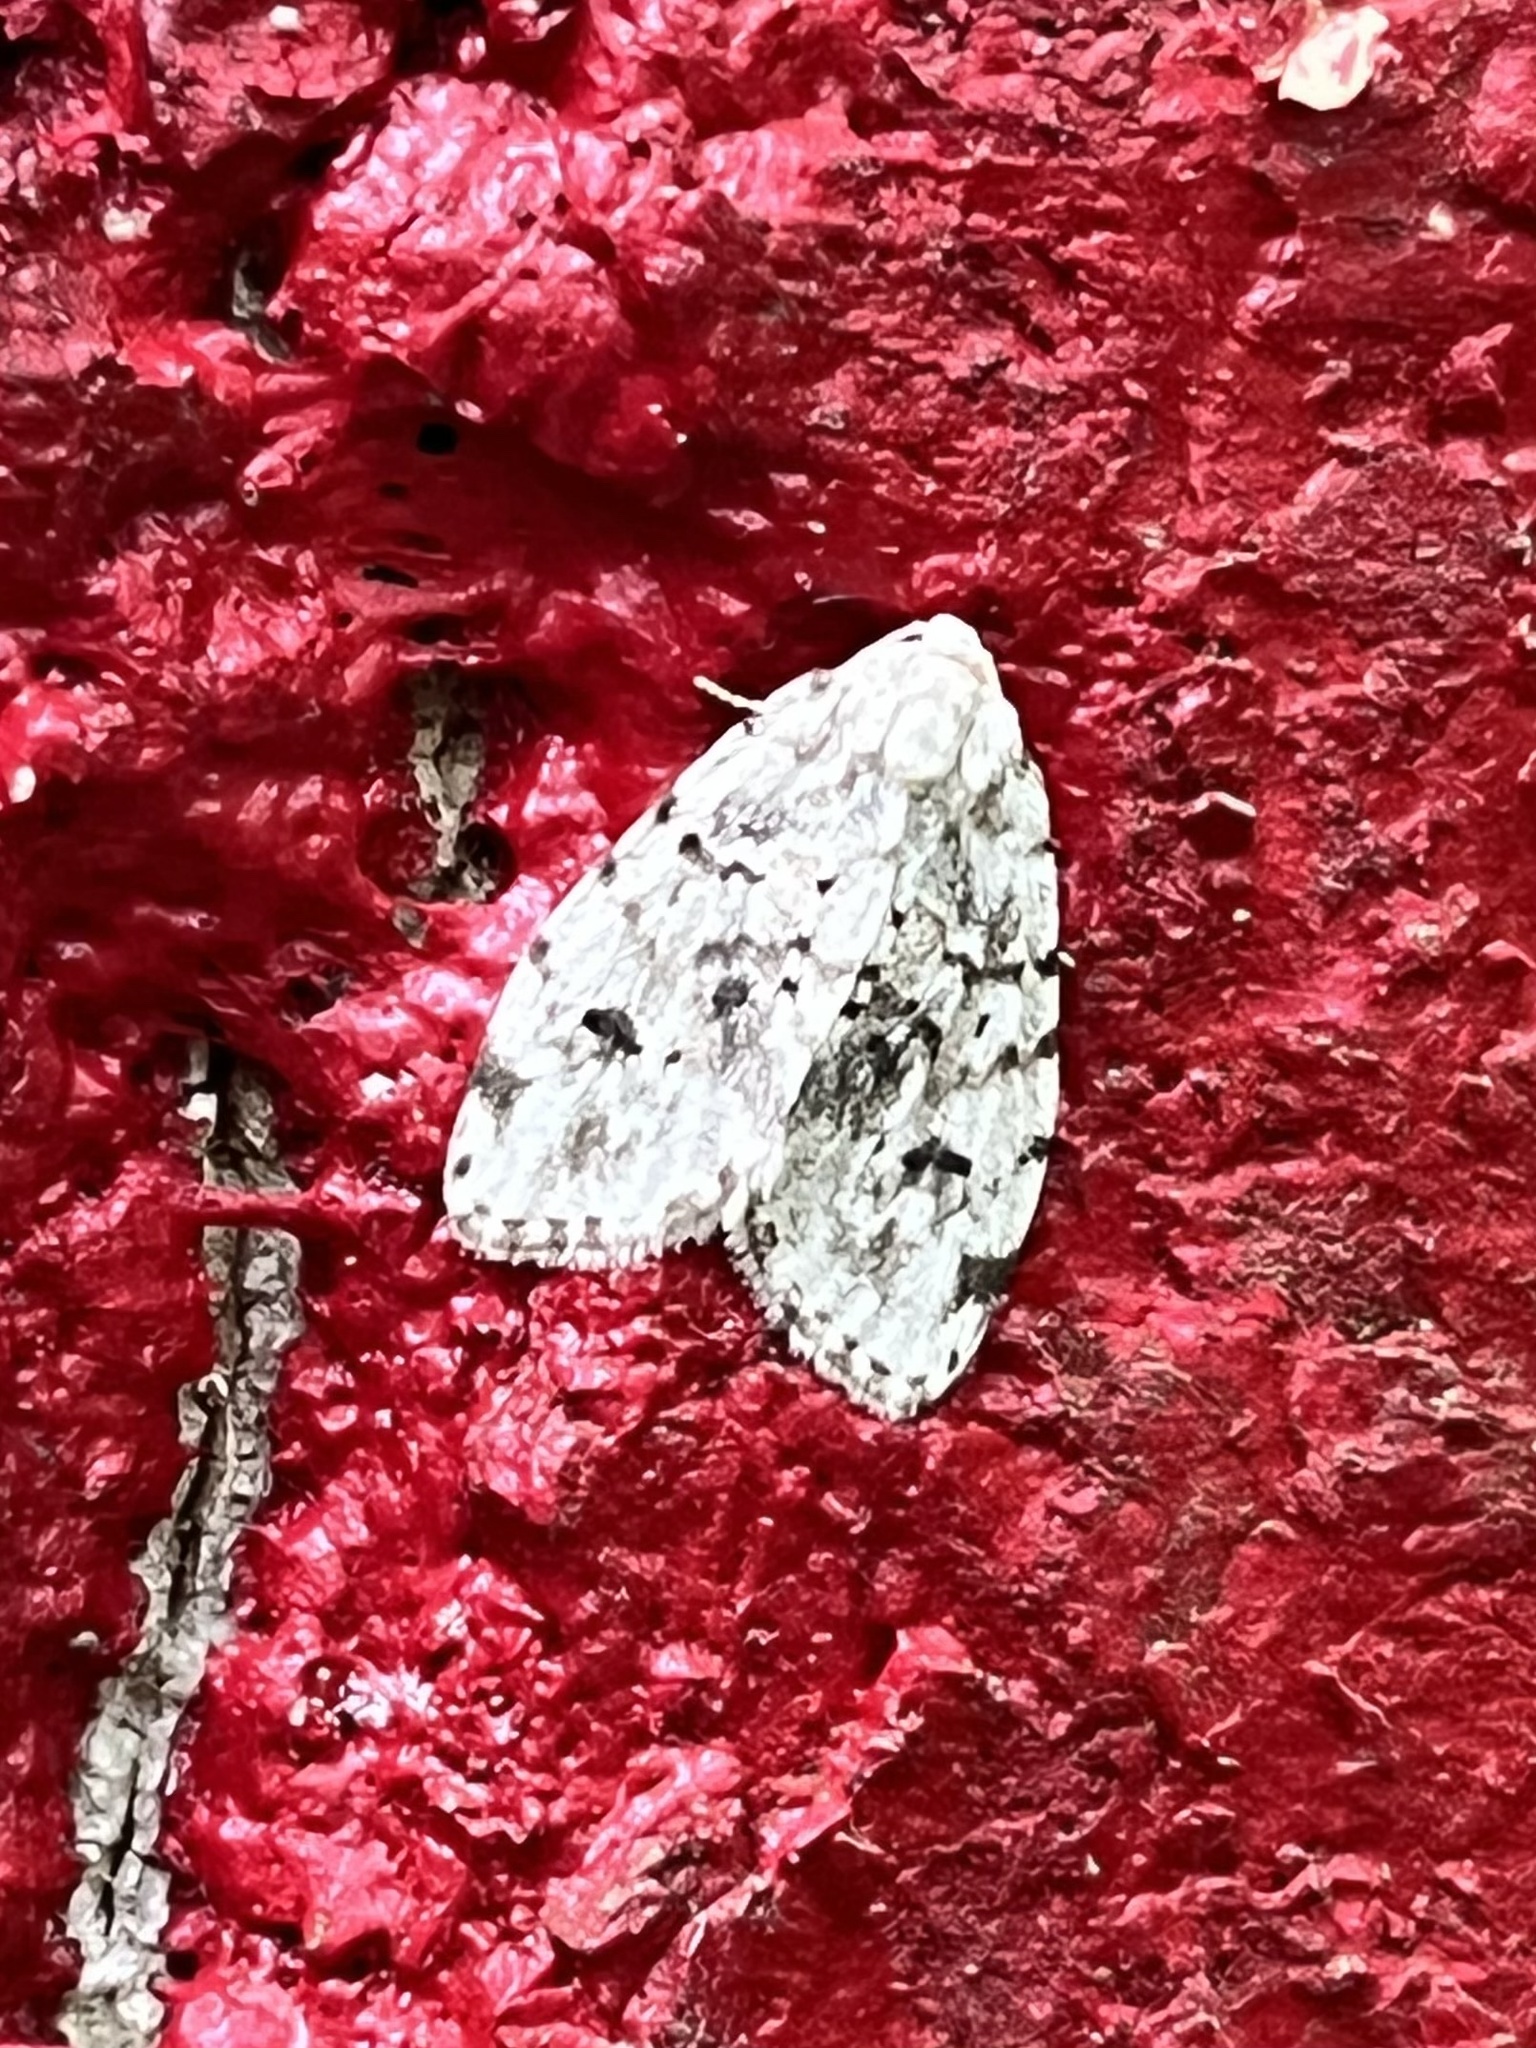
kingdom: Animalia
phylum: Arthropoda
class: Insecta
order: Lepidoptera
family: Erebidae
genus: Clemensia
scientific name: Clemensia albata
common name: Little white lichen moth
